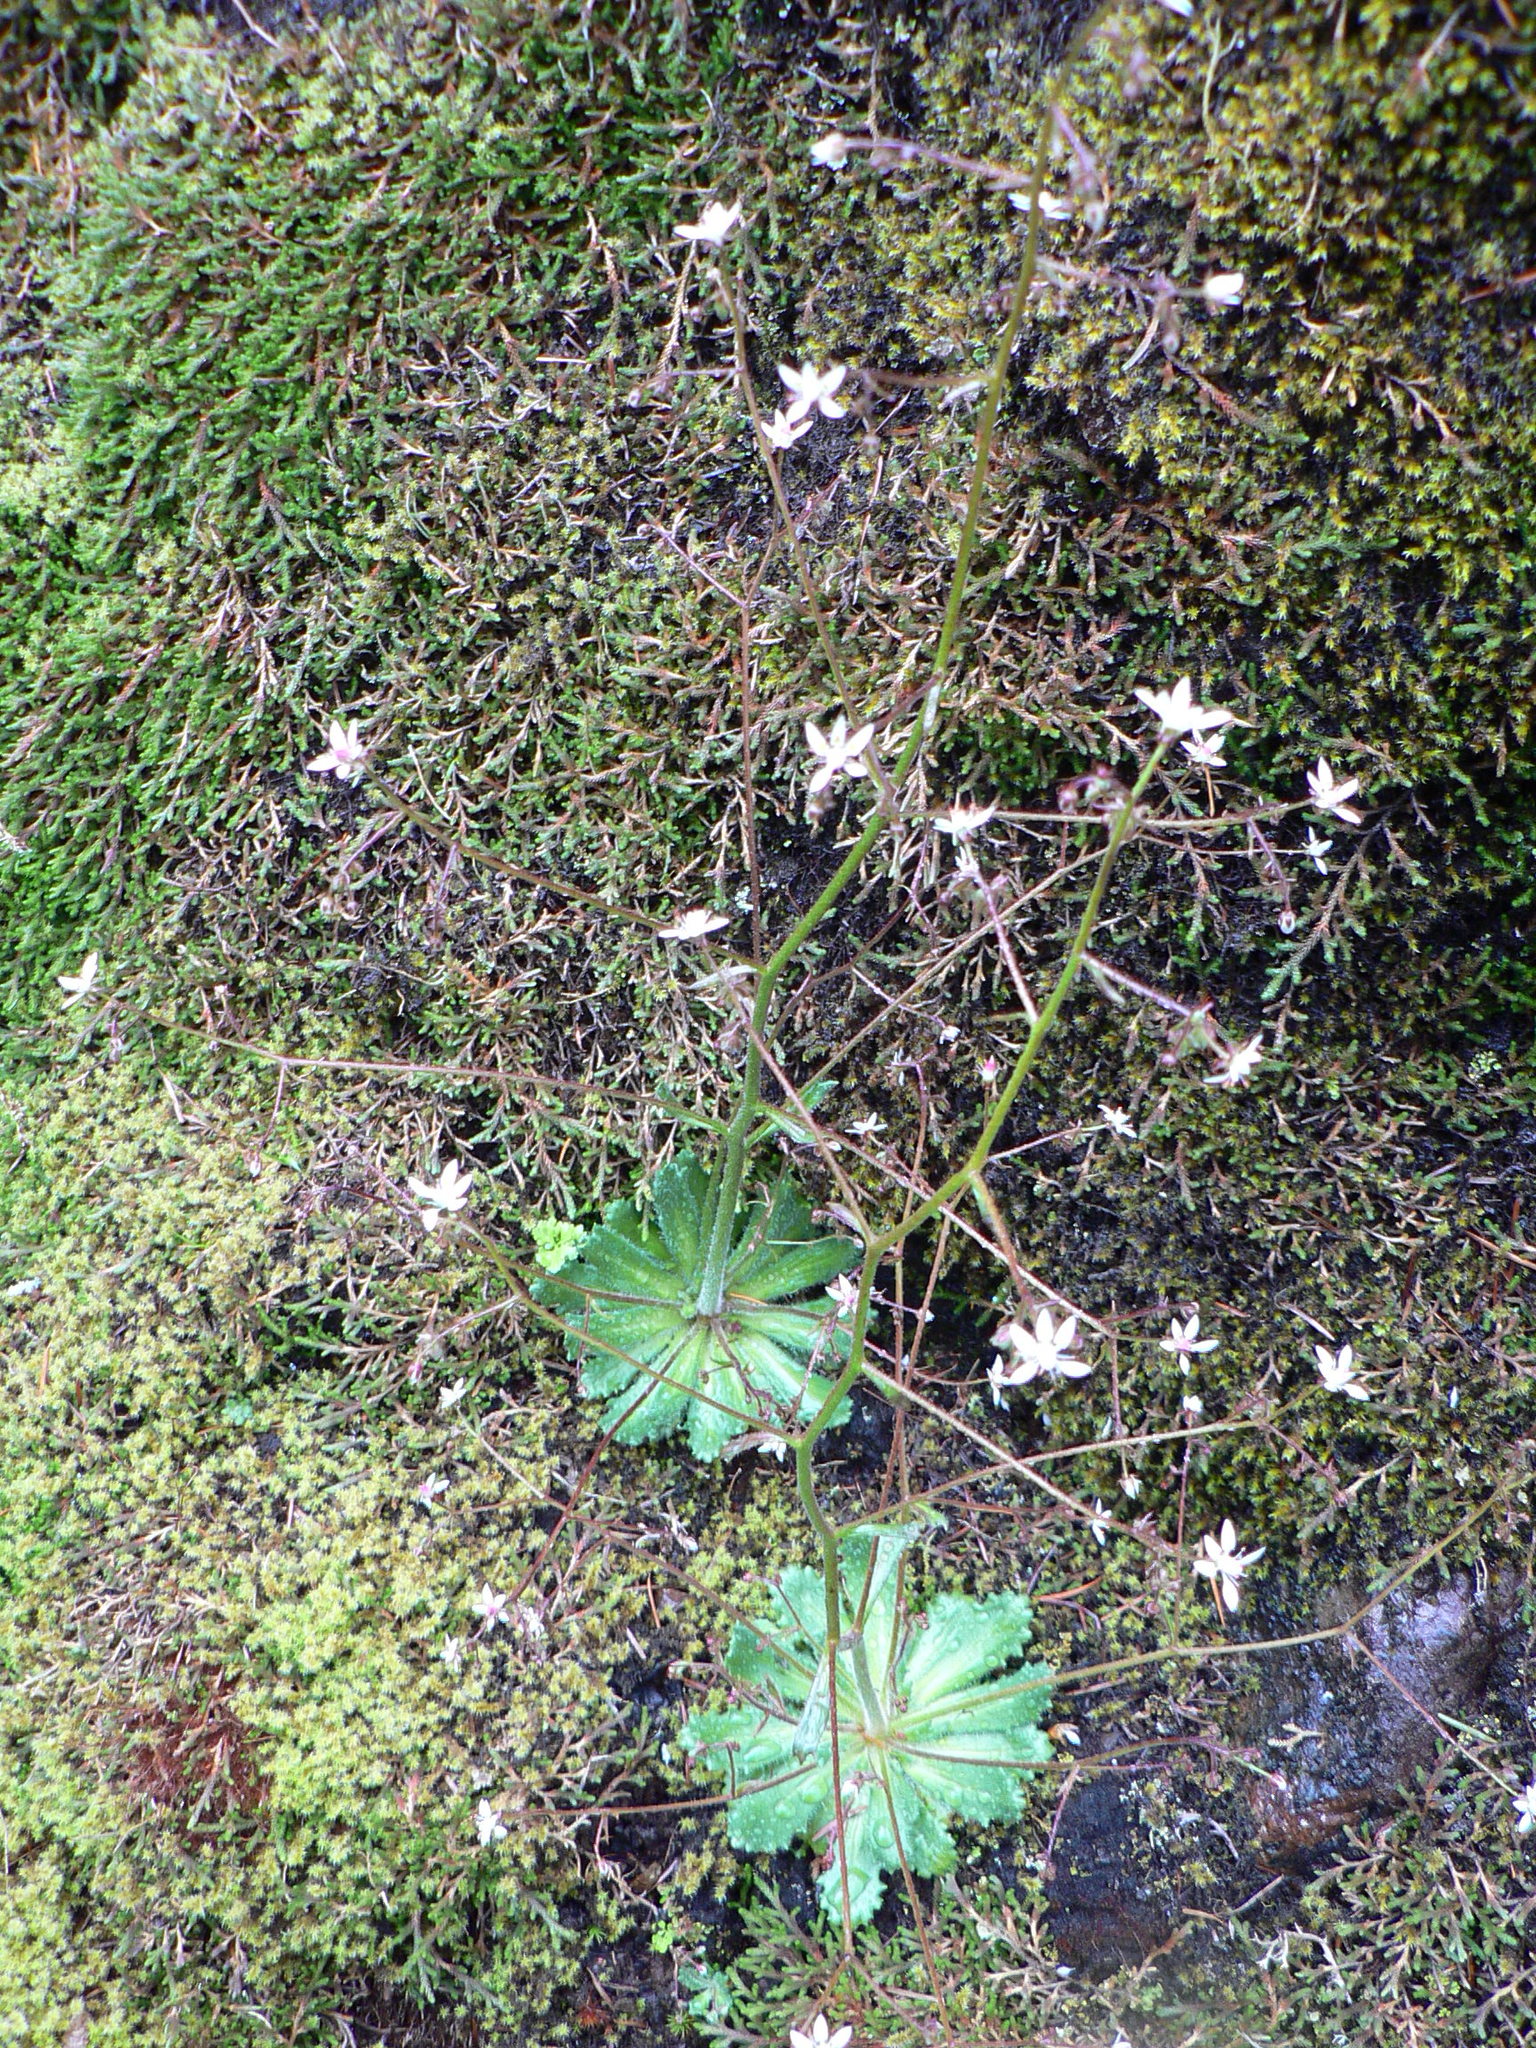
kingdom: Plantae
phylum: Tracheophyta
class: Magnoliopsida
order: Saxifragales
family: Saxifragaceae
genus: Micranthes
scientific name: Micranthes ferruginea
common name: Rusty saxifrage
